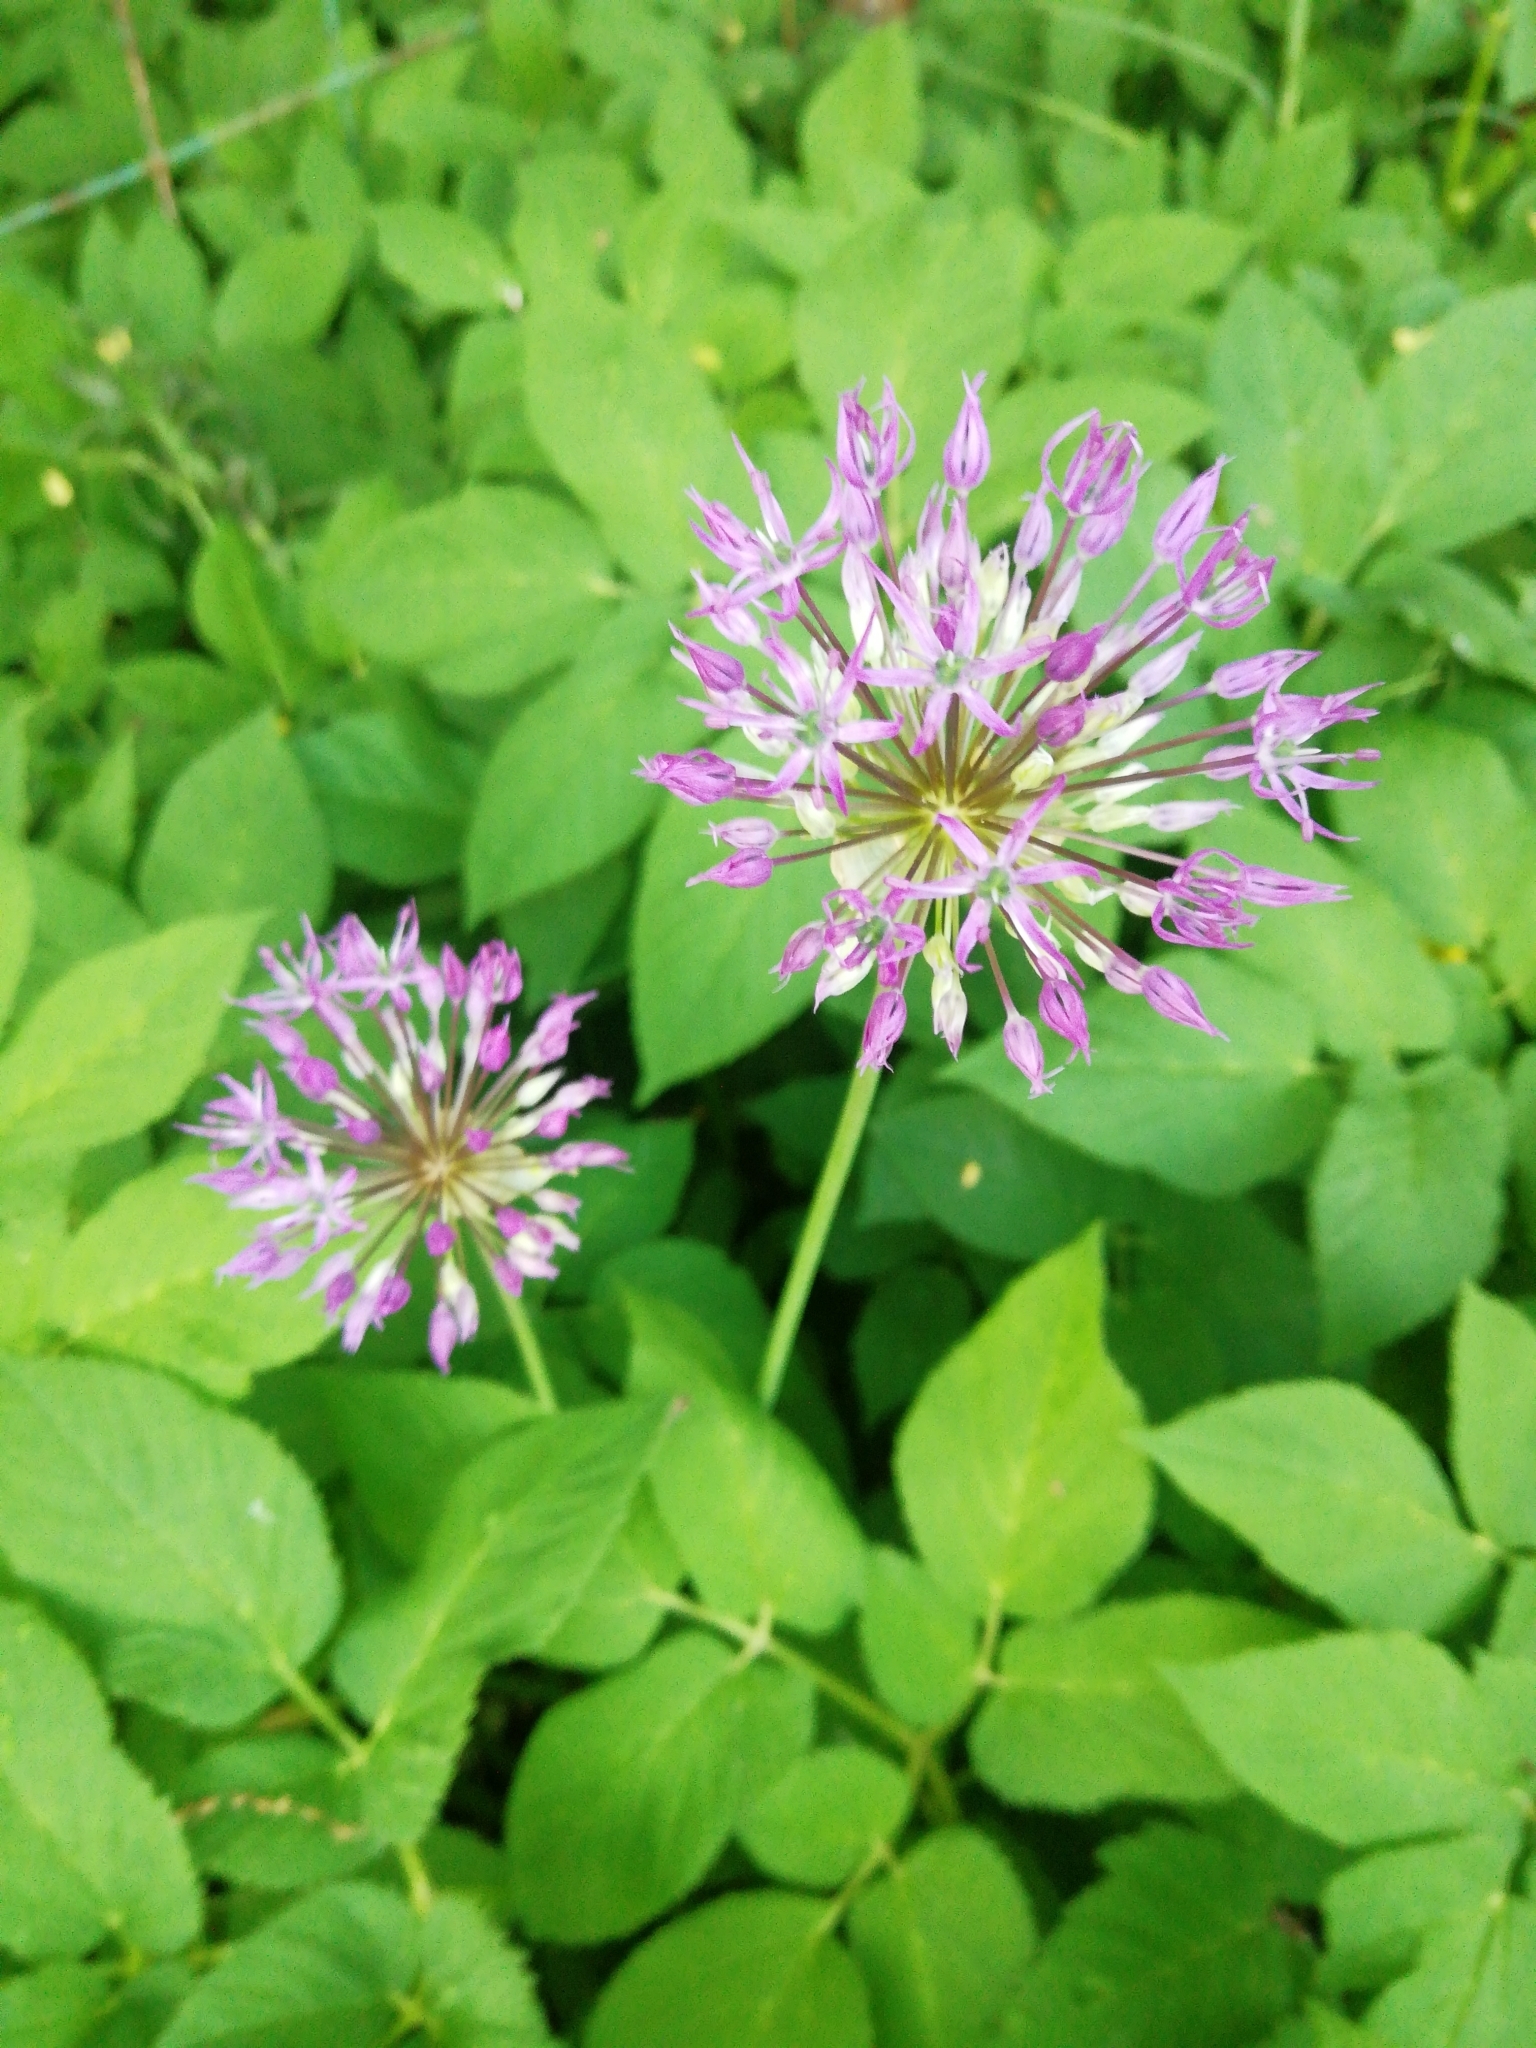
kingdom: Plantae
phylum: Tracheophyta
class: Liliopsida
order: Asparagales
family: Amaryllidaceae
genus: Allium
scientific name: Allium rosenorum
